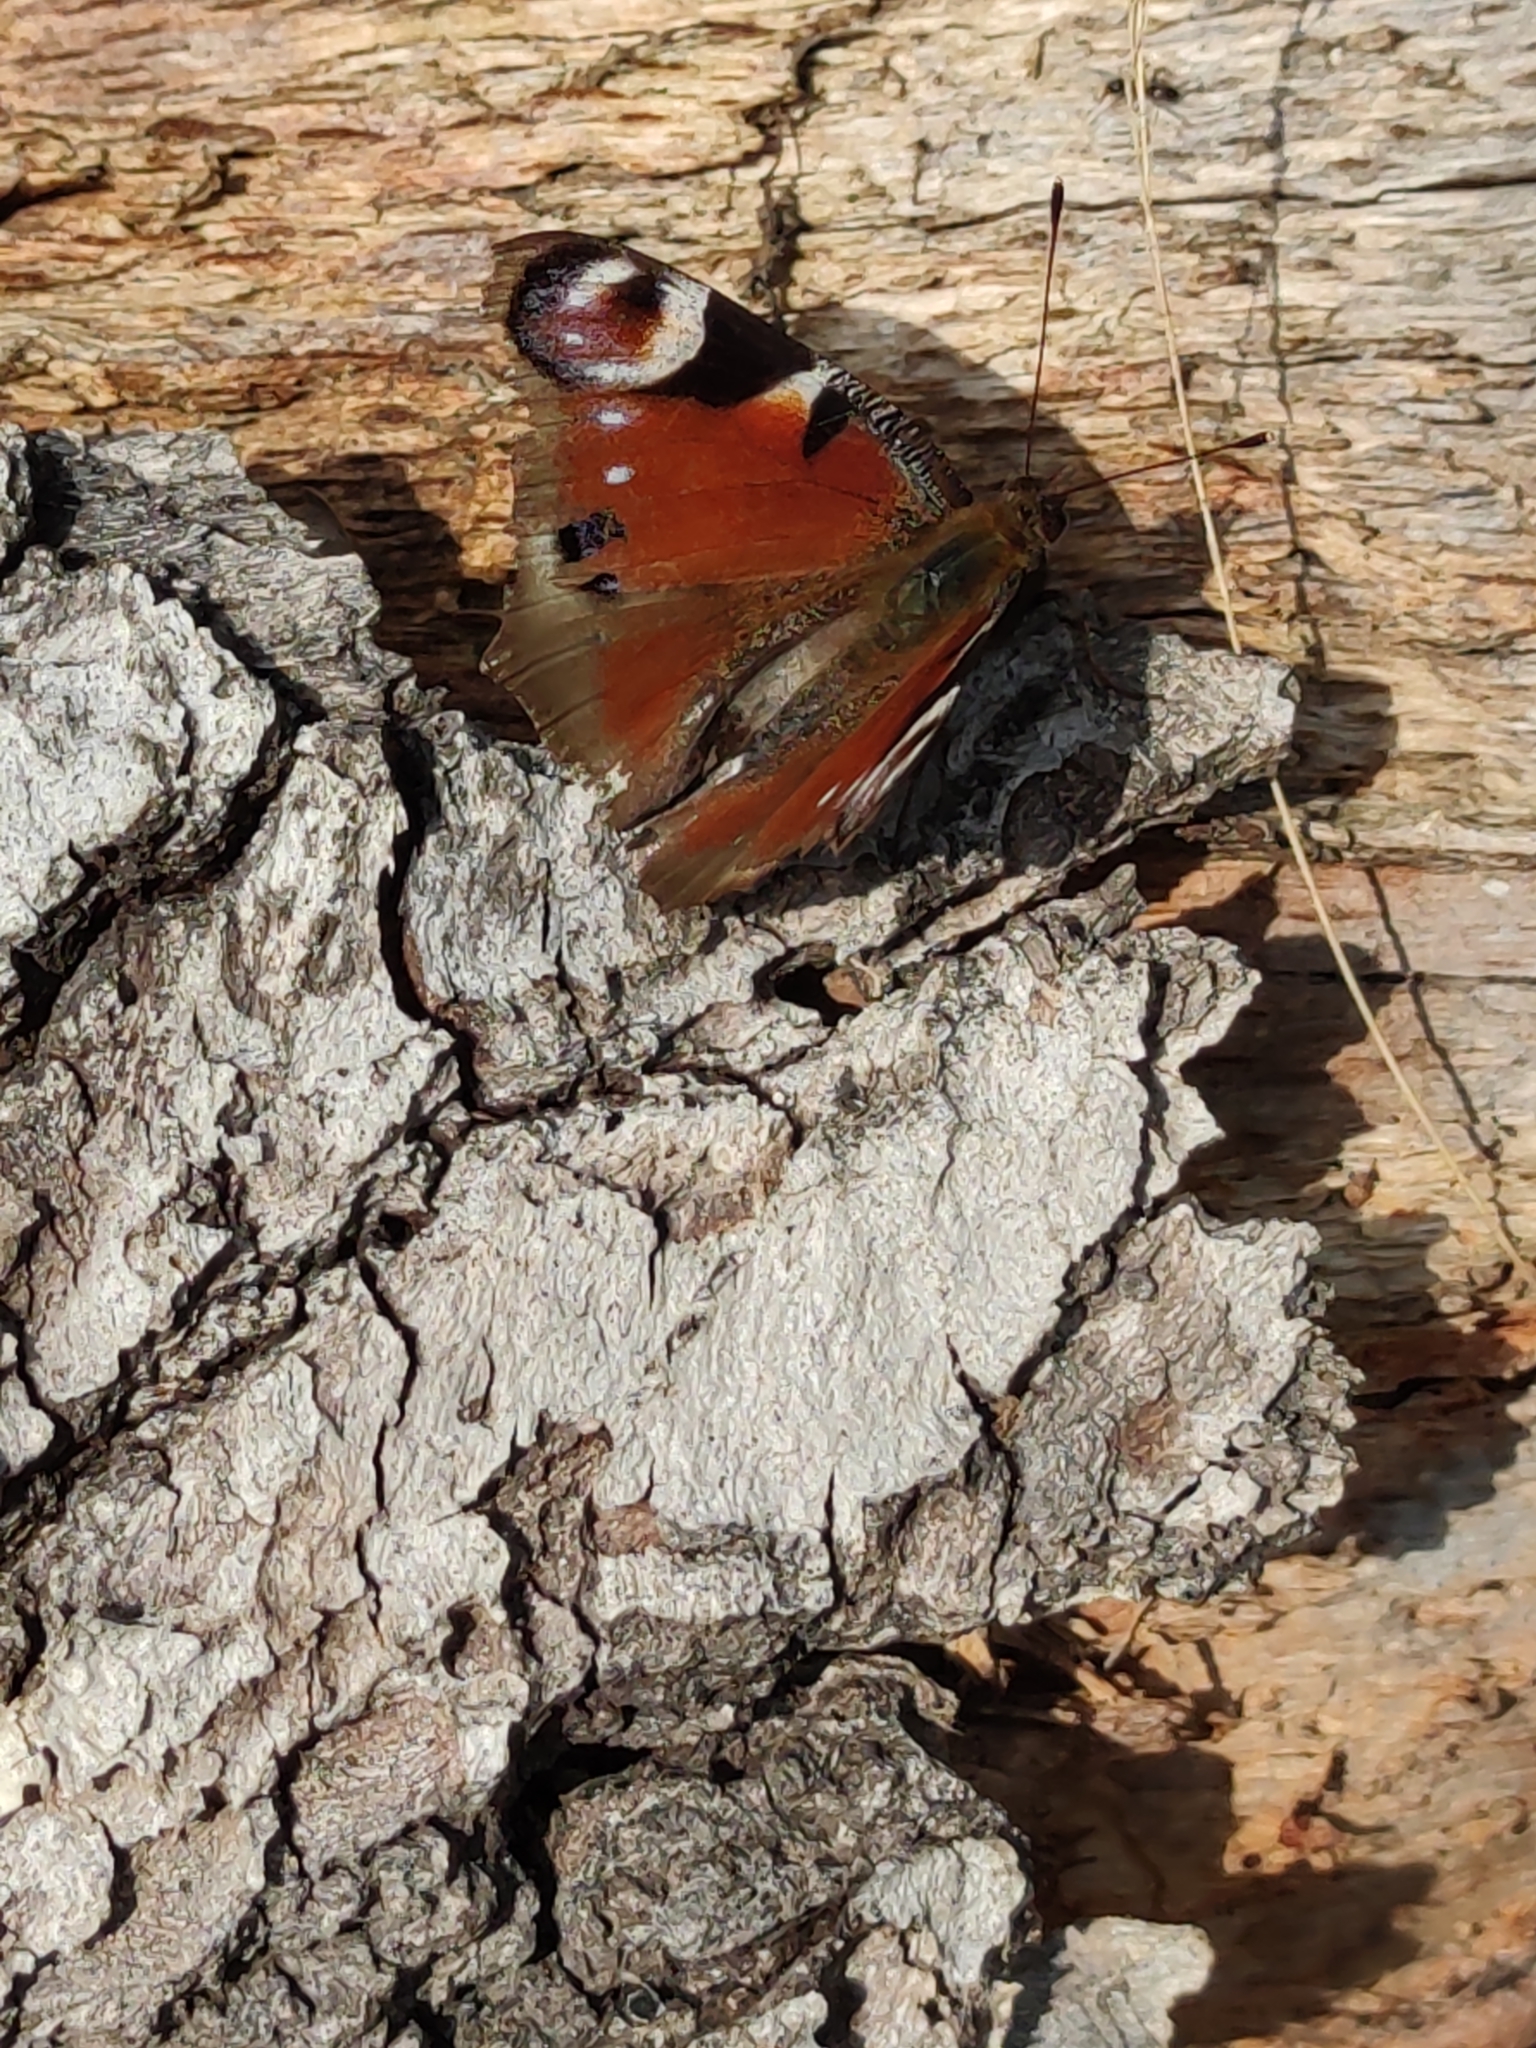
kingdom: Animalia
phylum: Arthropoda
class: Insecta
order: Lepidoptera
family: Nymphalidae
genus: Aglais
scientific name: Aglais io
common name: Peacock
